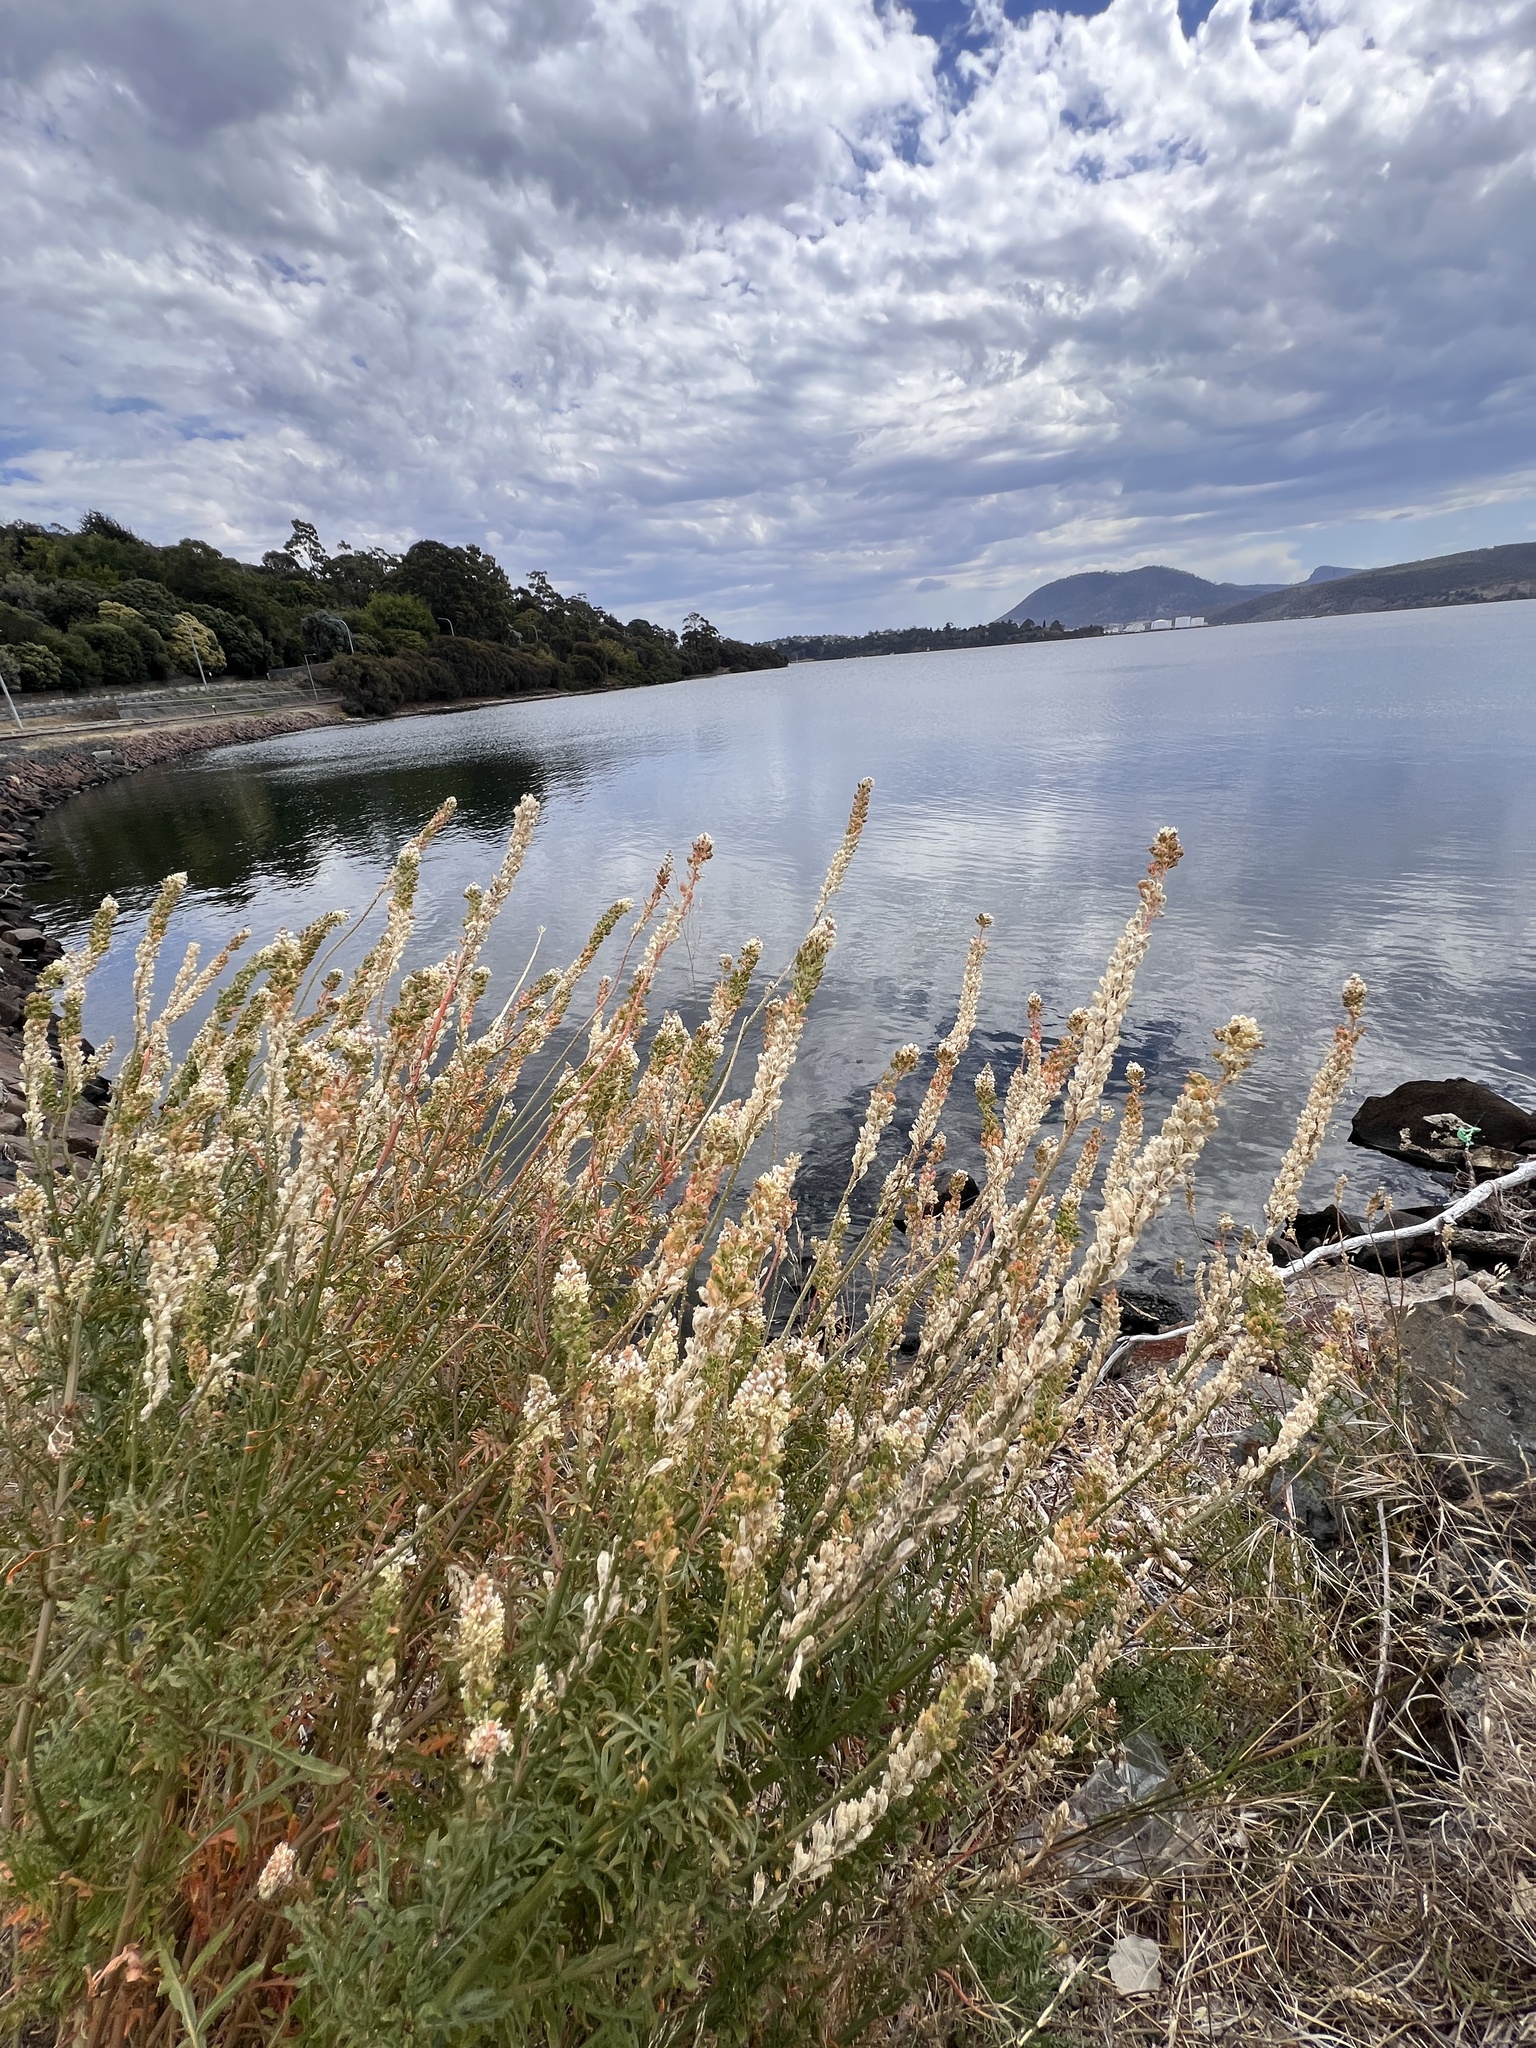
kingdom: Plantae
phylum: Tracheophyta
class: Magnoliopsida
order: Brassicales
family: Resedaceae
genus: Reseda
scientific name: Reseda alba
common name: White mignonette
